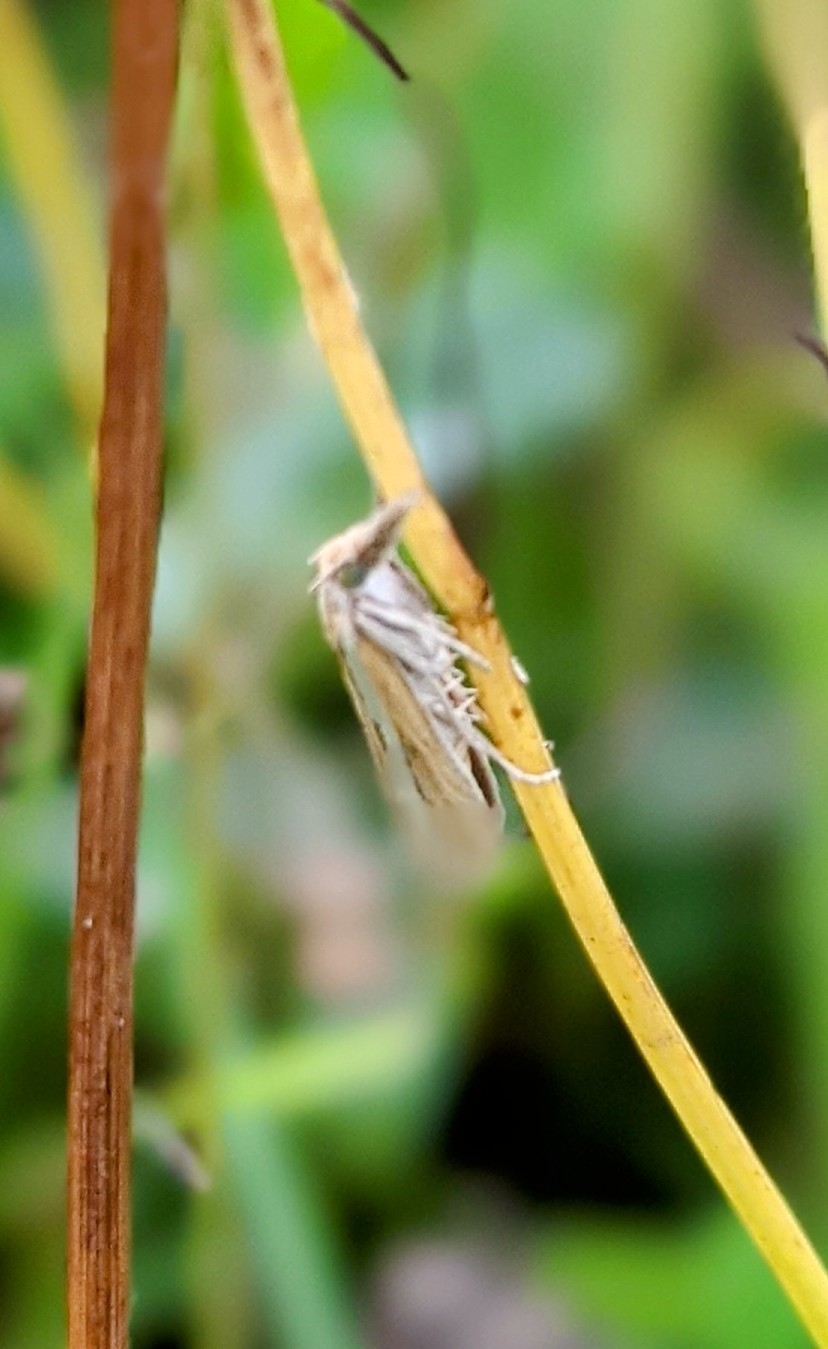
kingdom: Animalia
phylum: Arthropoda
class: Insecta
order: Lepidoptera
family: Crambidae
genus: Agriphila
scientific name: Agriphila tristellus
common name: Common grass-veneer
